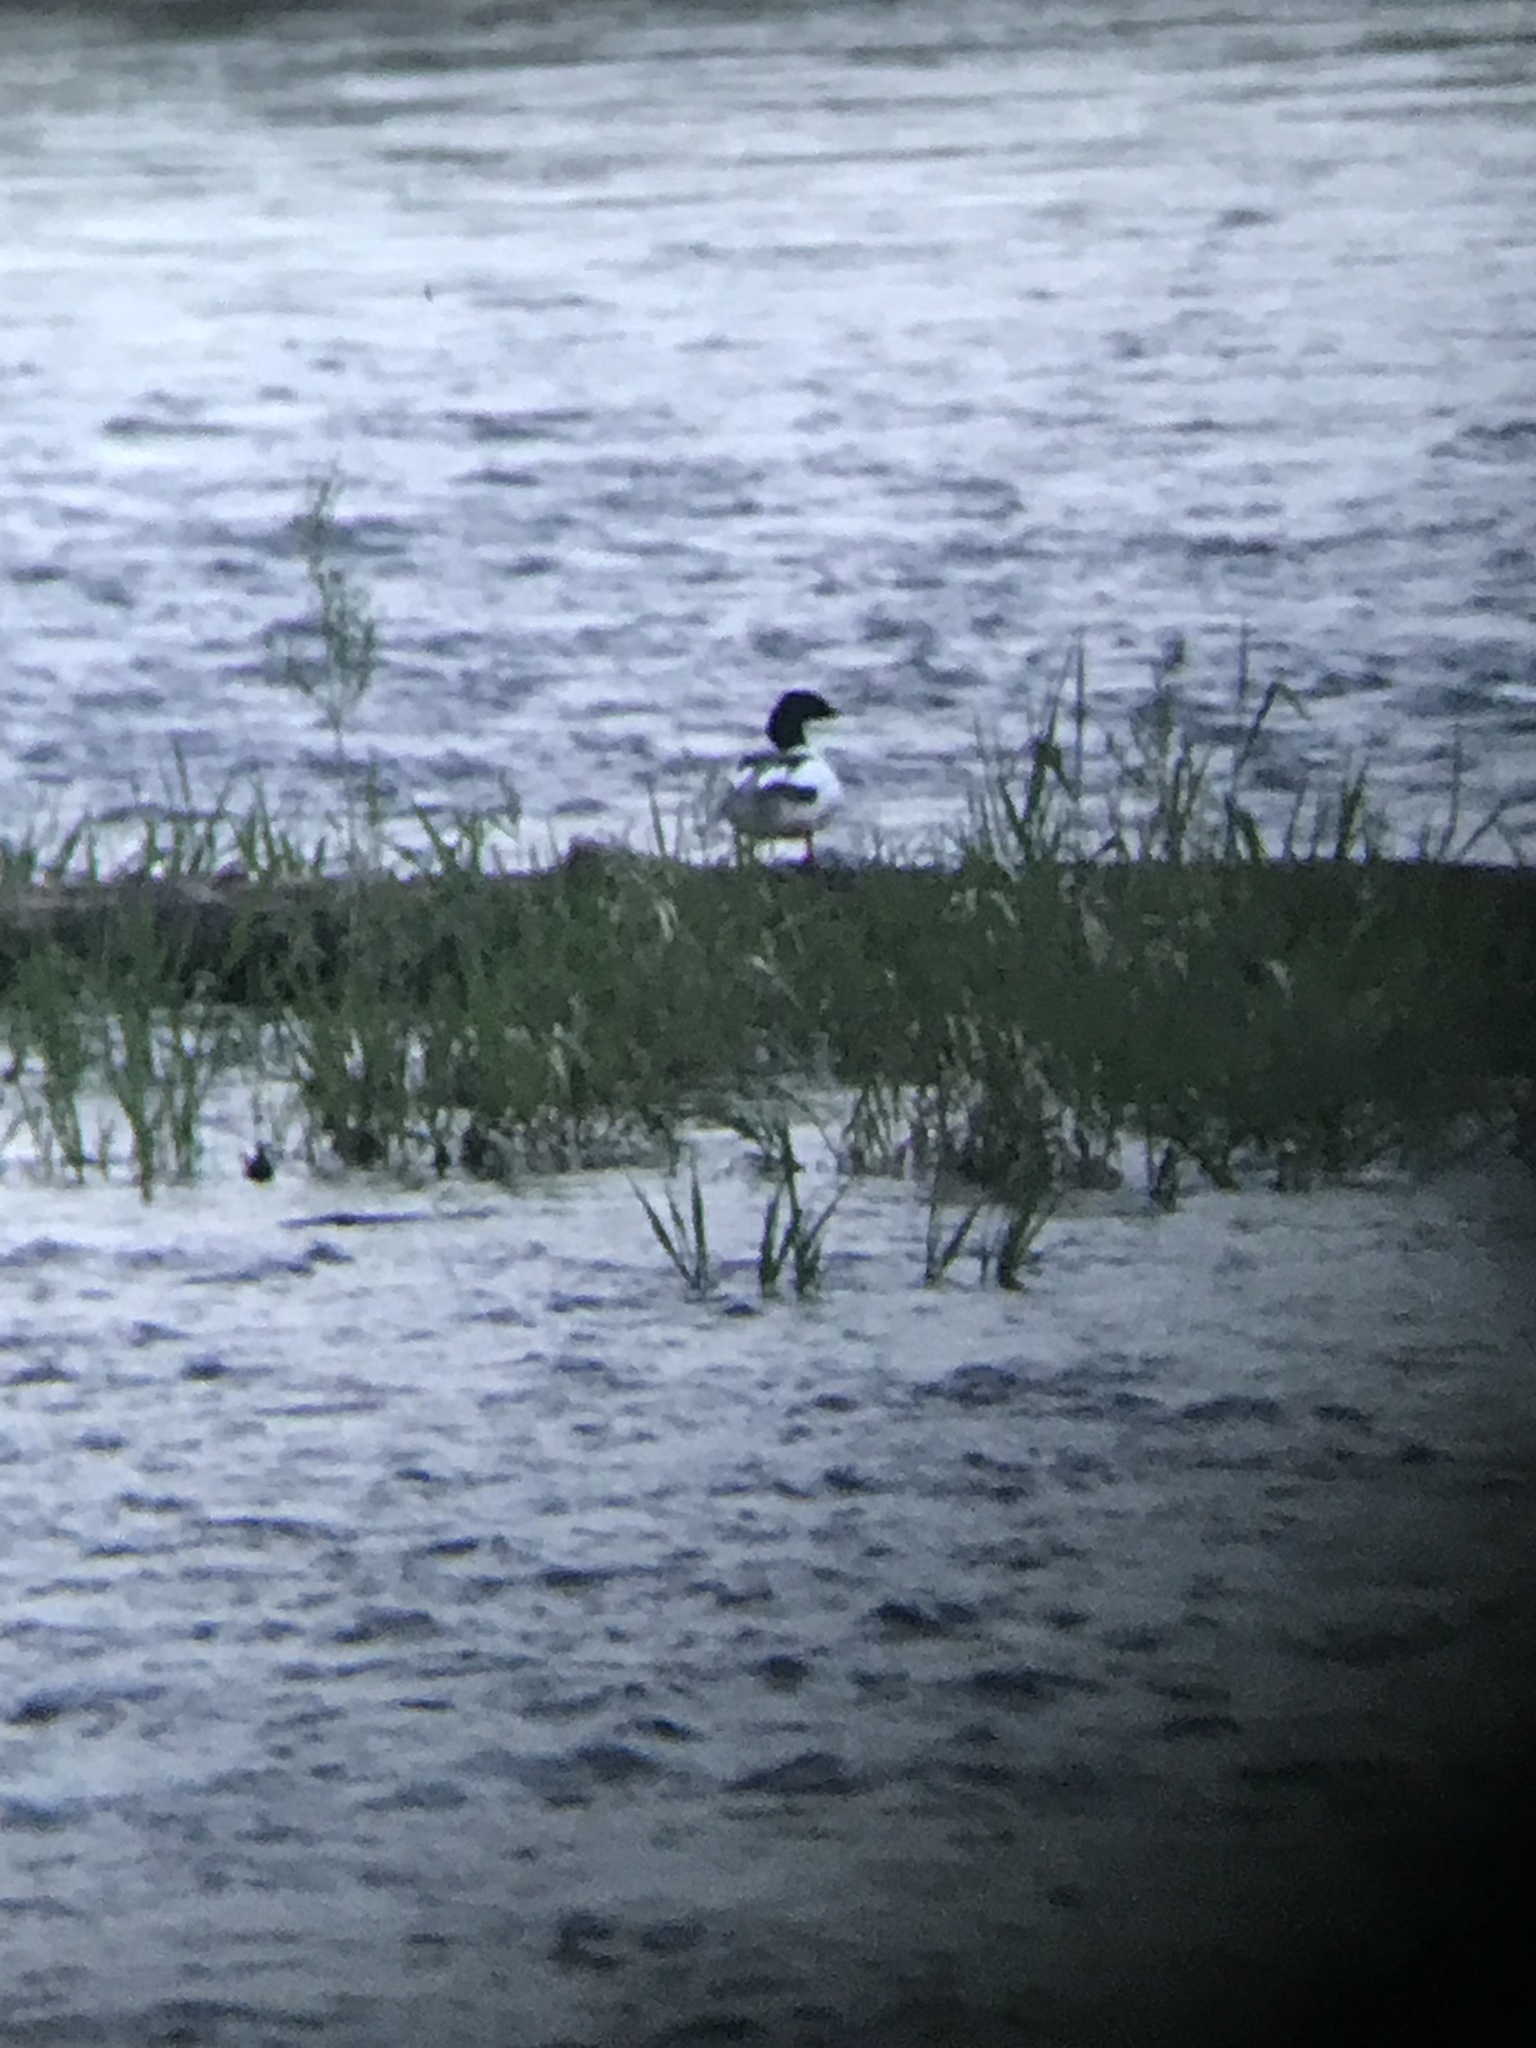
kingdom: Animalia
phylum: Chordata
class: Aves
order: Anseriformes
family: Anatidae
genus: Mergus
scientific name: Mergus merganser
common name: Common merganser
